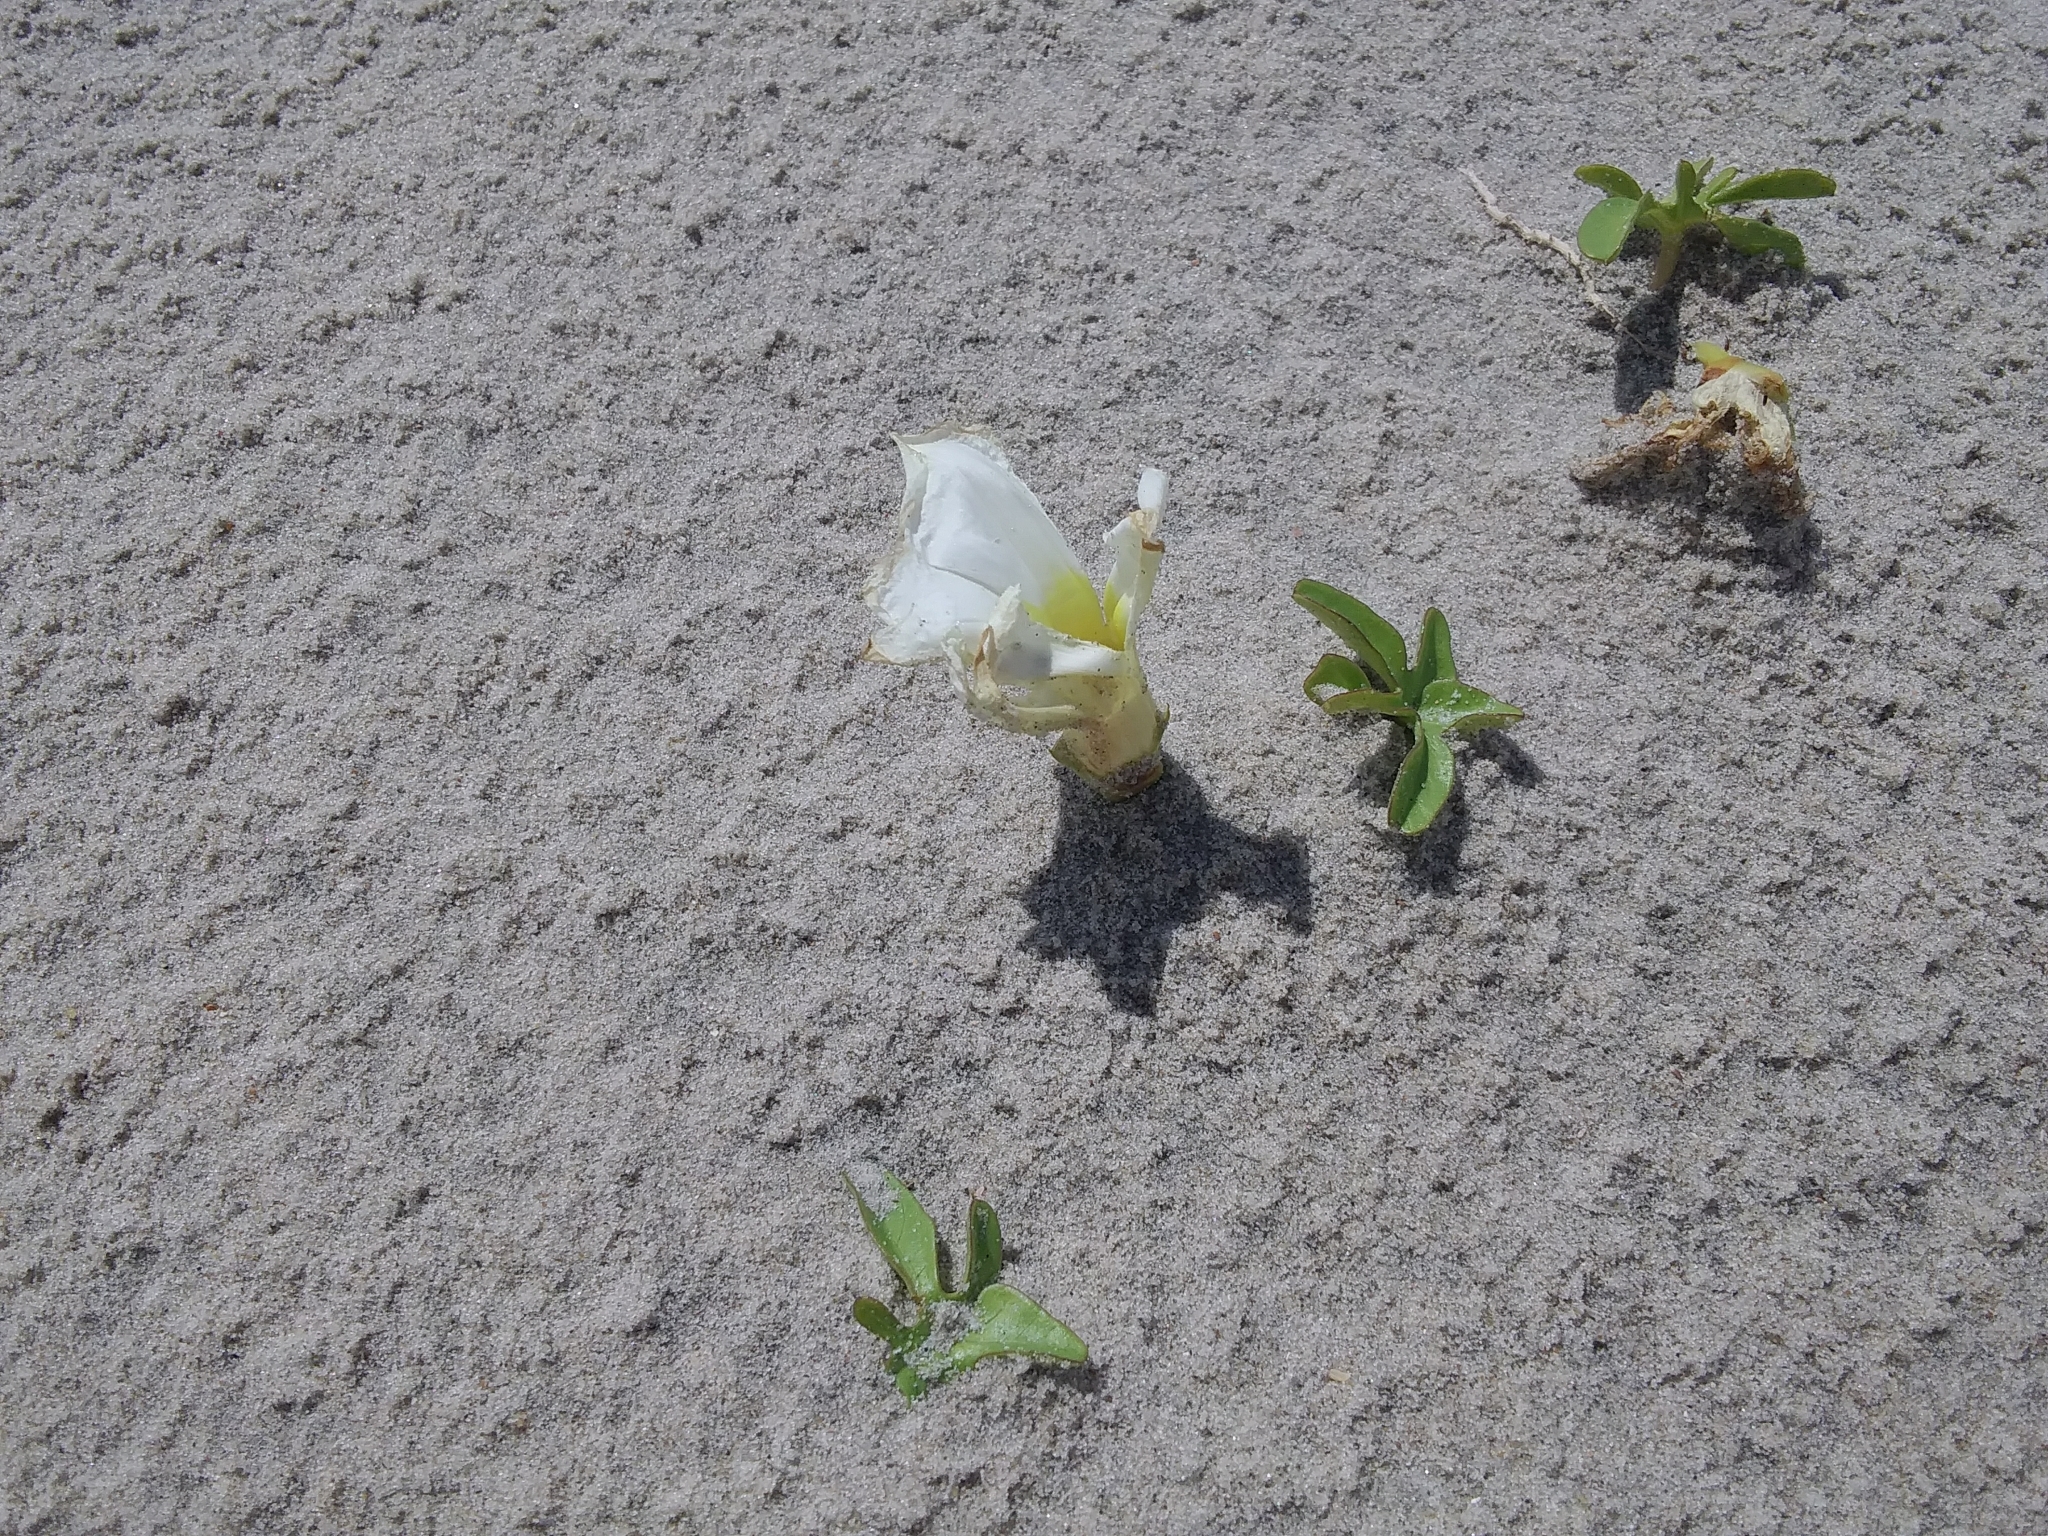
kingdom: Plantae
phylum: Tracheophyta
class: Magnoliopsida
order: Solanales
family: Convolvulaceae
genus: Ipomoea
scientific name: Ipomoea imperati
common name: Fiddle-leaf morning-glory
